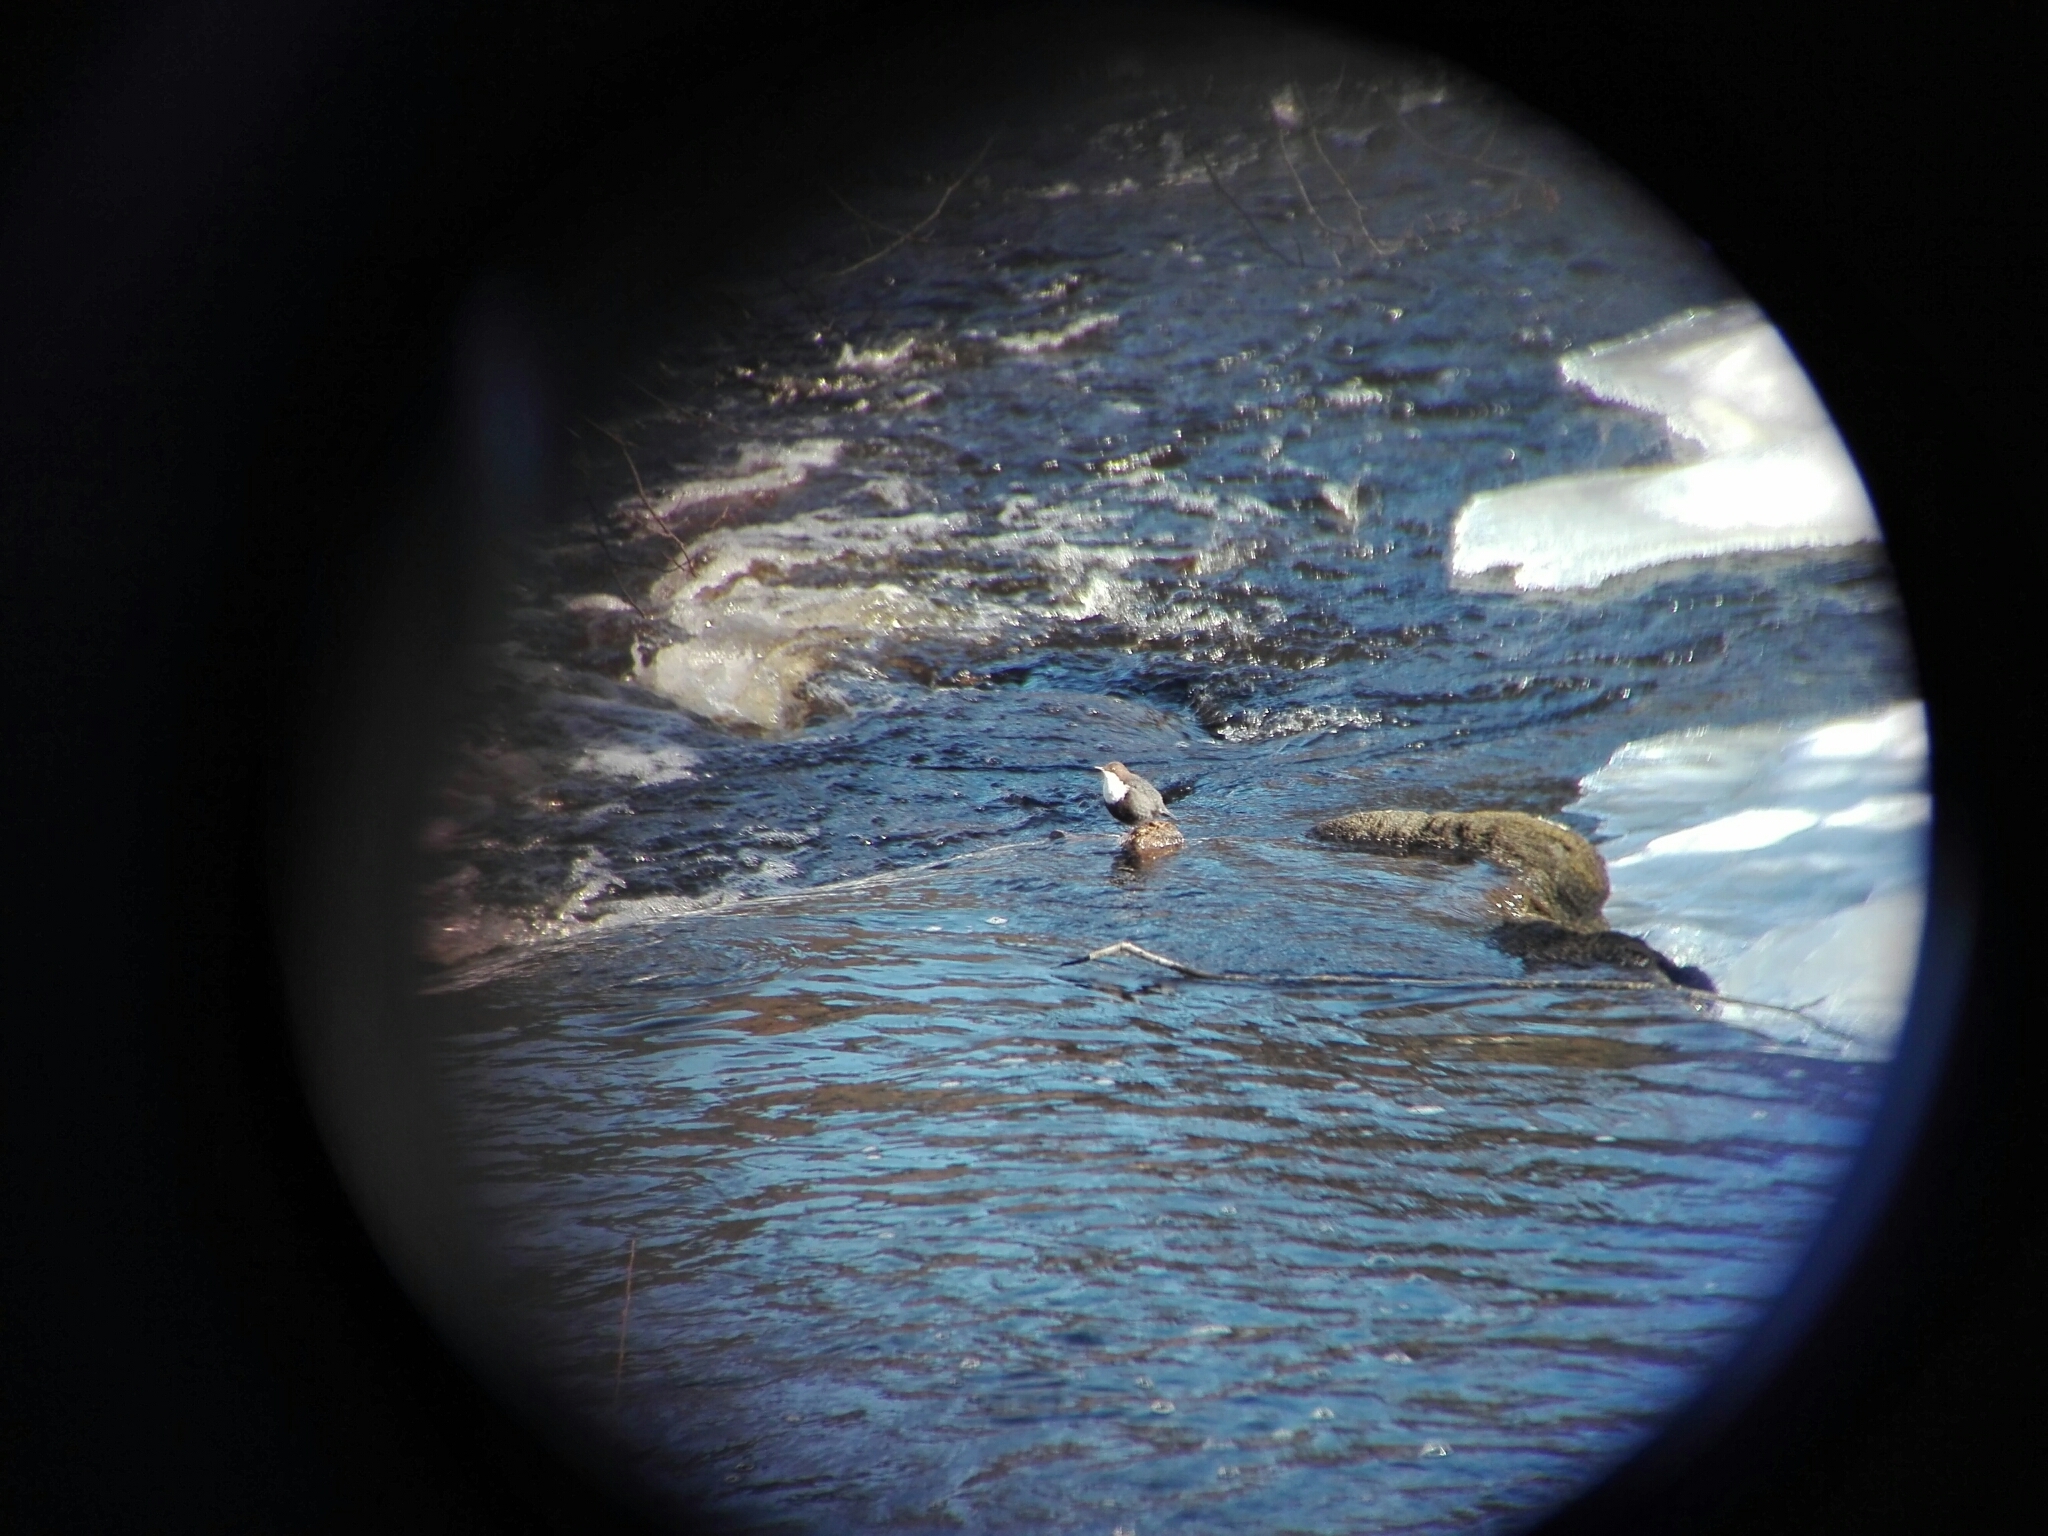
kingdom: Animalia
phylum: Chordata
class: Aves
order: Passeriformes
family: Cinclidae
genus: Cinclus
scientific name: Cinclus cinclus
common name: White-throated dipper
